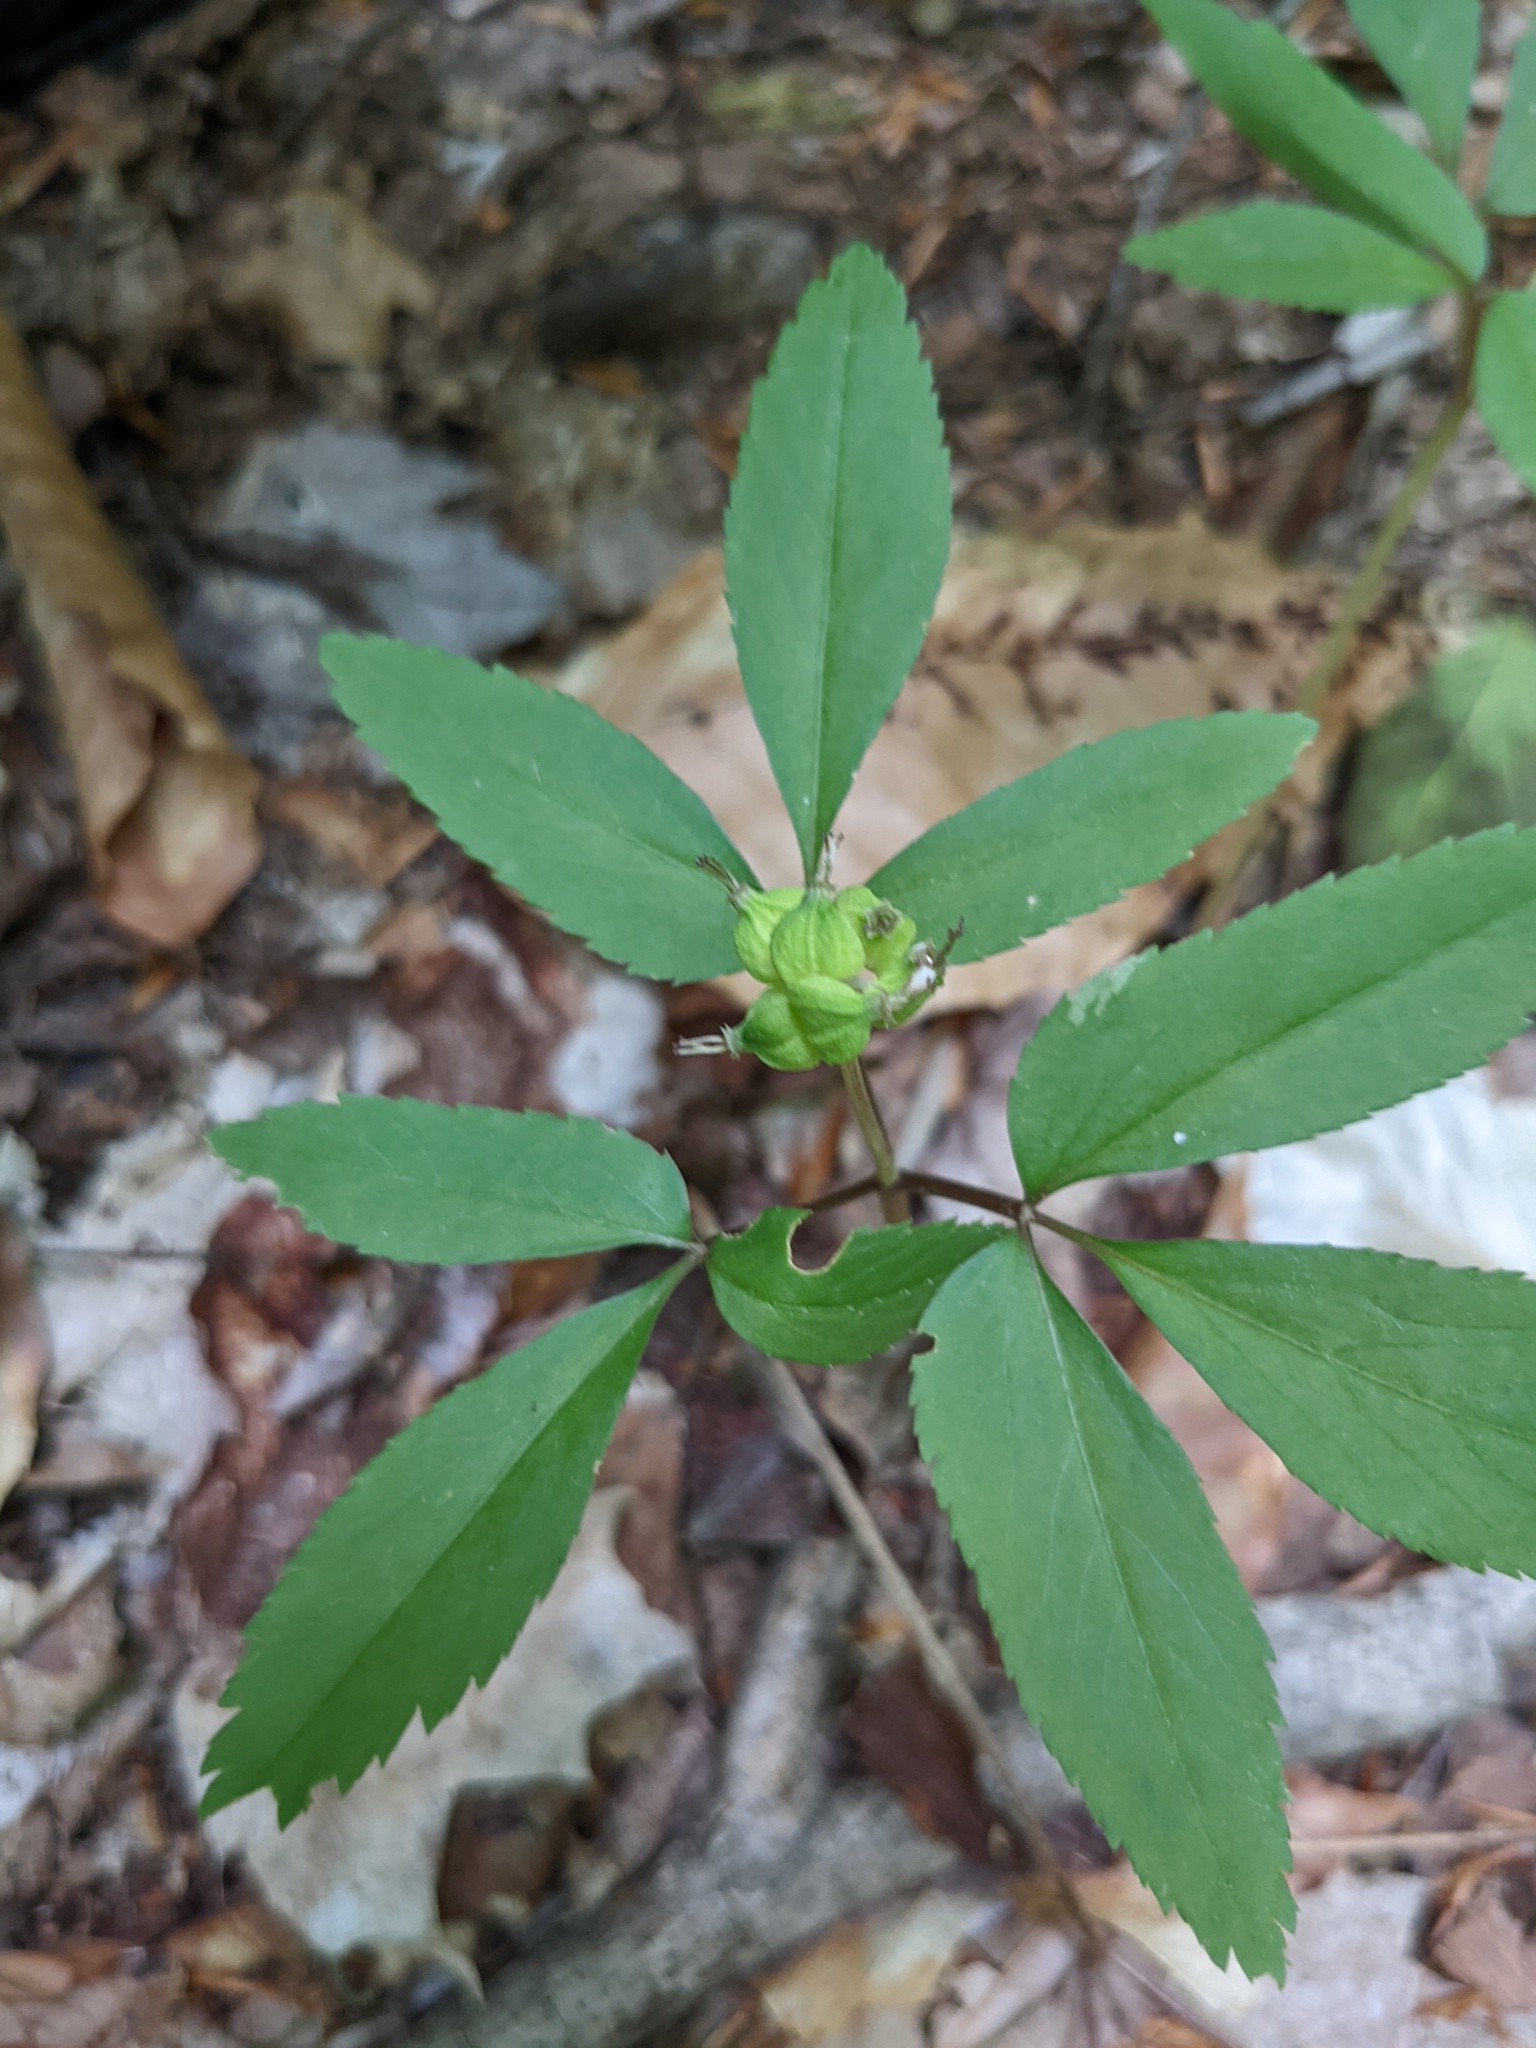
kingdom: Plantae
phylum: Tracheophyta
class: Magnoliopsida
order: Apiales
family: Araliaceae
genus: Panax
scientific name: Panax trifolius
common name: Dwarf ginseng
